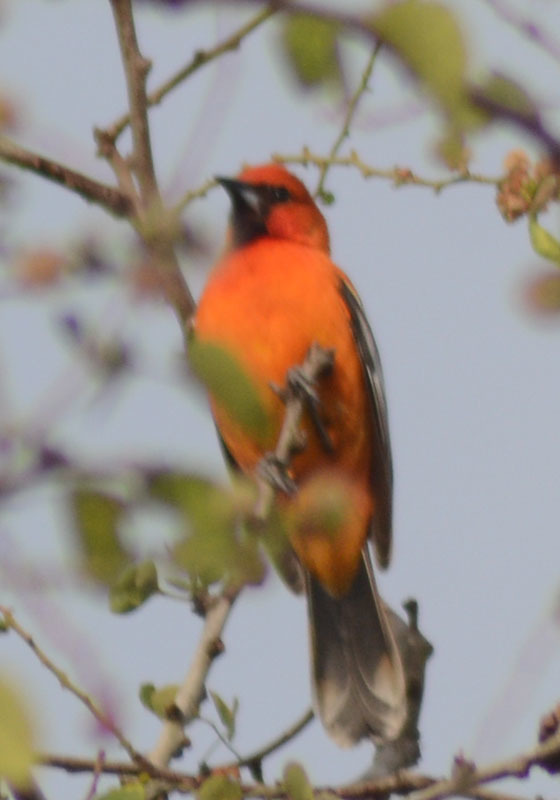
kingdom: Animalia
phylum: Chordata
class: Aves
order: Passeriformes
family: Icteridae
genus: Icterus
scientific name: Icterus pustulatus
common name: Streak-backed oriole
